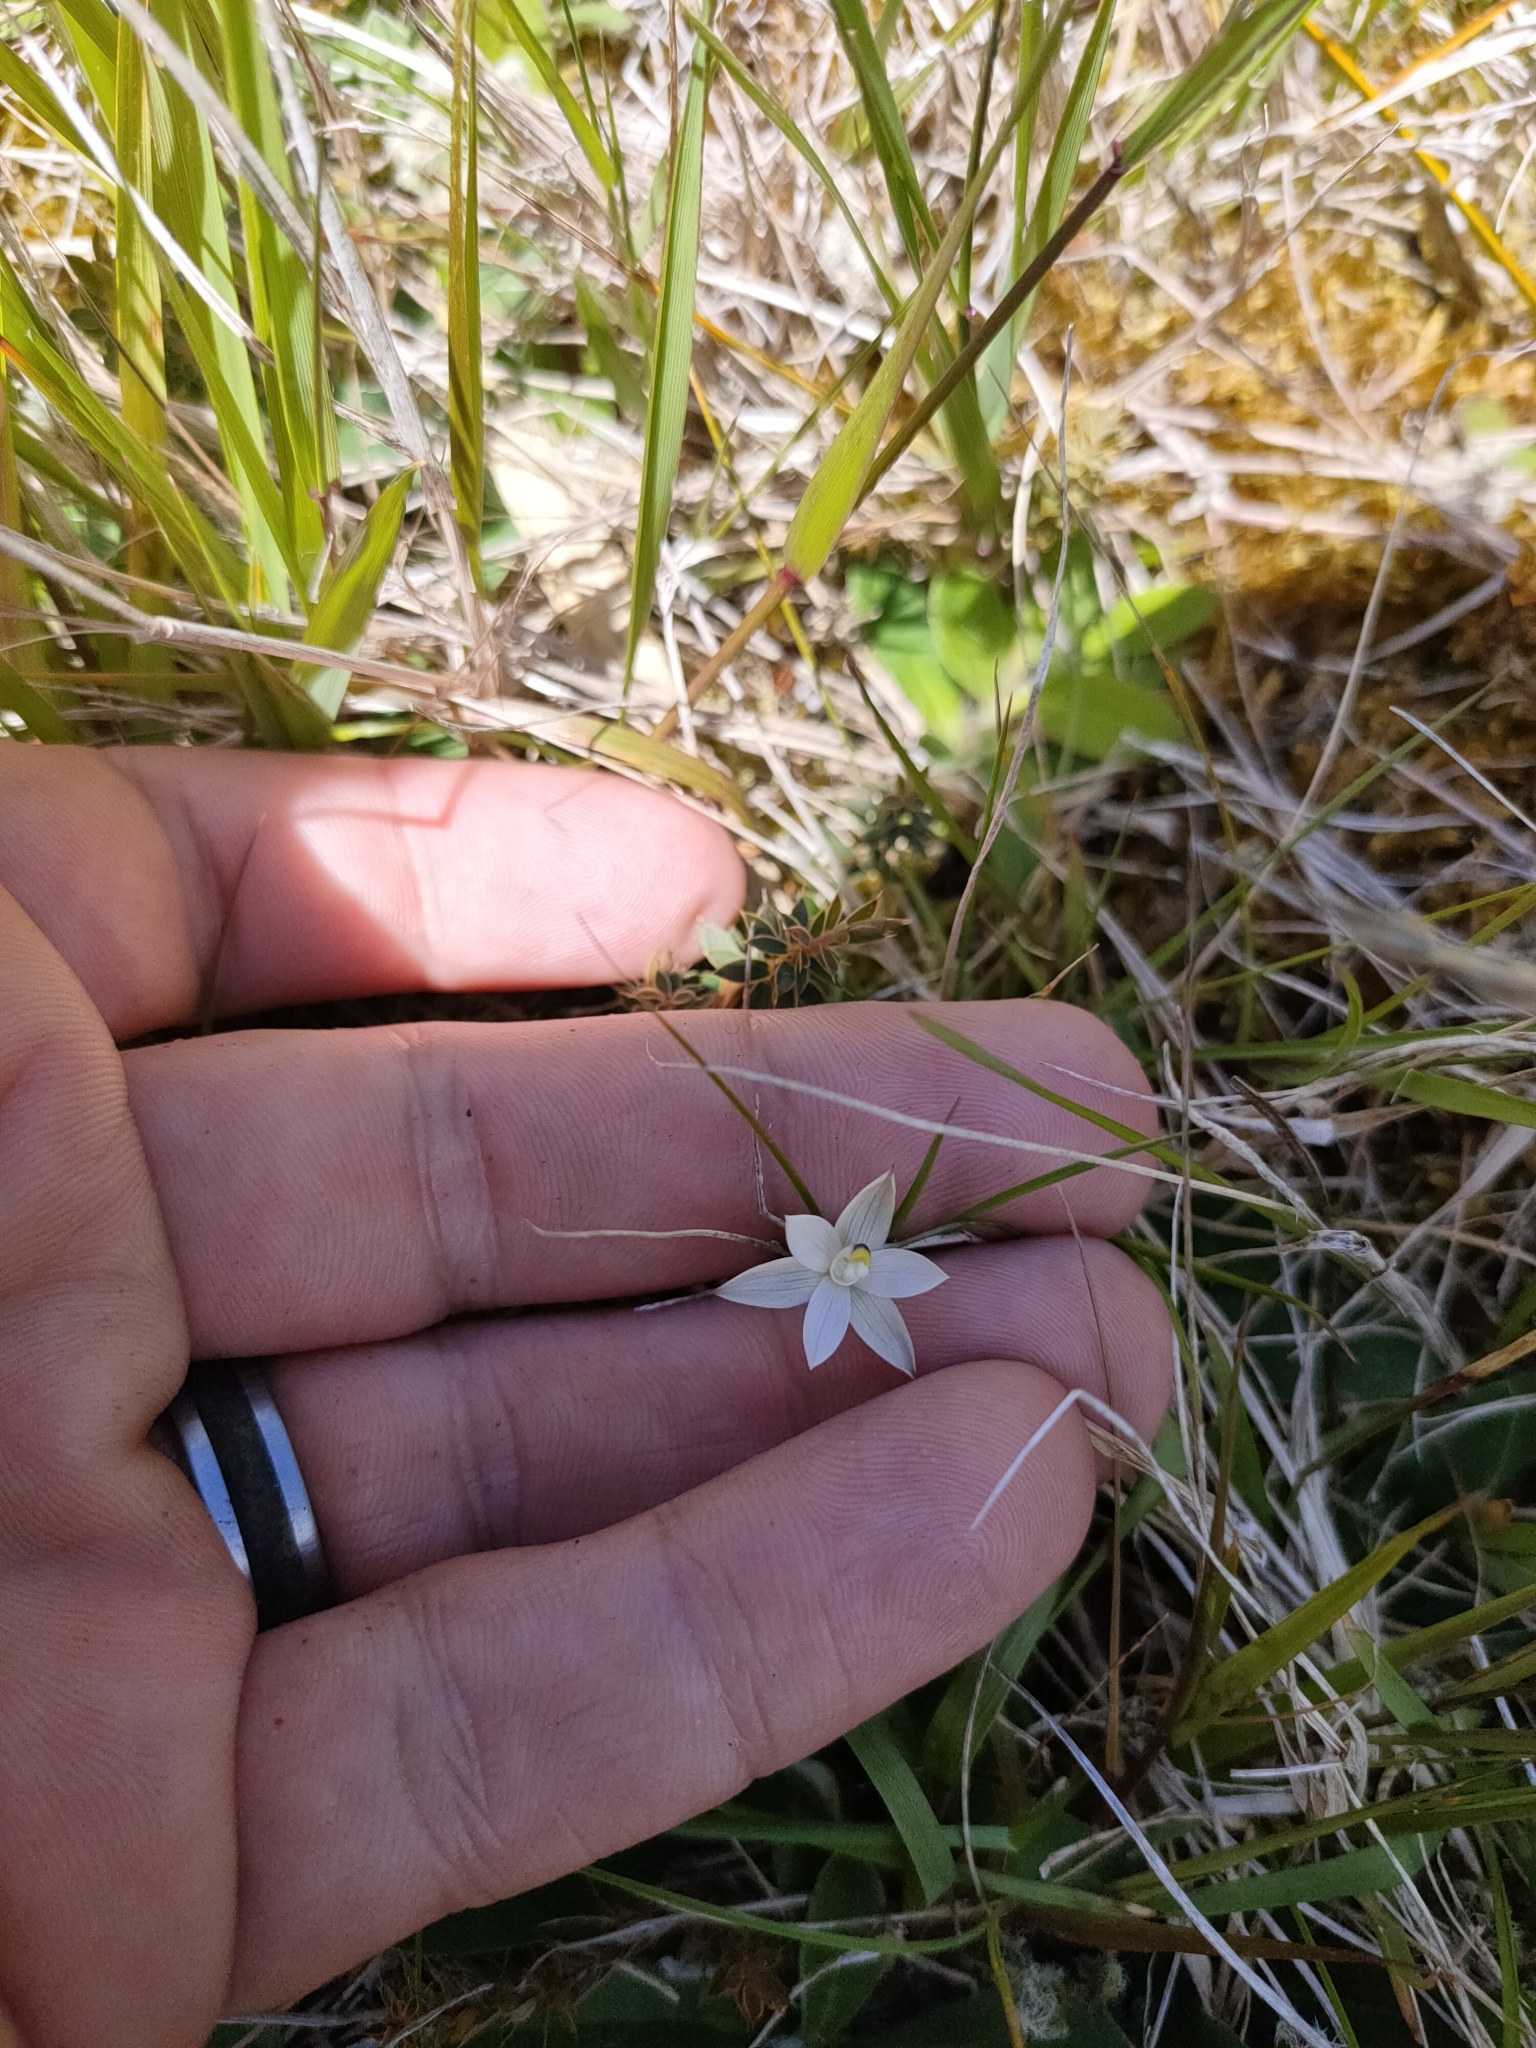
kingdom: Plantae
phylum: Tracheophyta
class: Liliopsida
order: Asparagales
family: Orchidaceae
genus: Thelymitra
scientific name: Thelymitra longifolia
